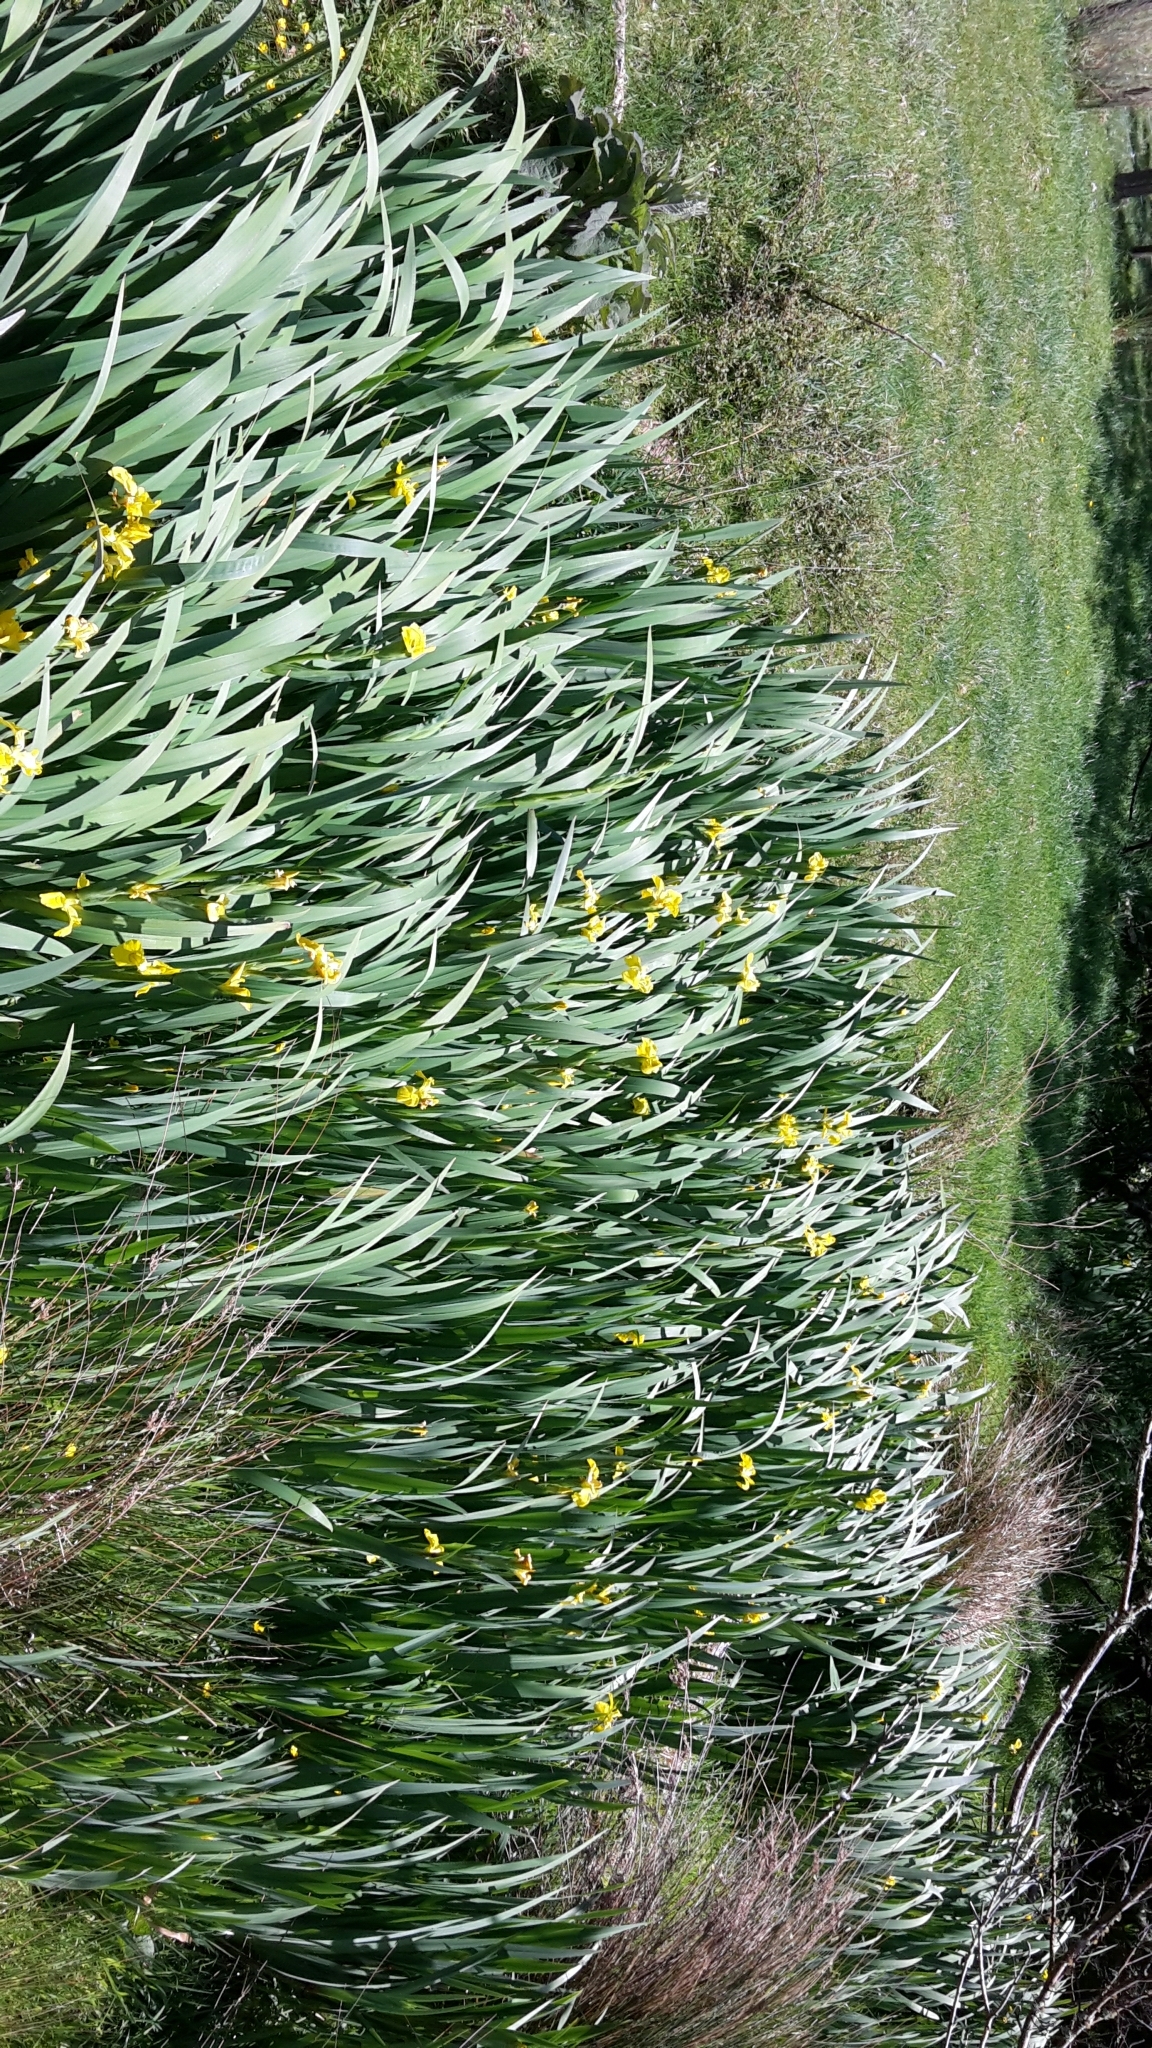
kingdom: Plantae
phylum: Tracheophyta
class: Liliopsida
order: Asparagales
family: Iridaceae
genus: Iris
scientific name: Iris pseudacorus
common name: Yellow flag
